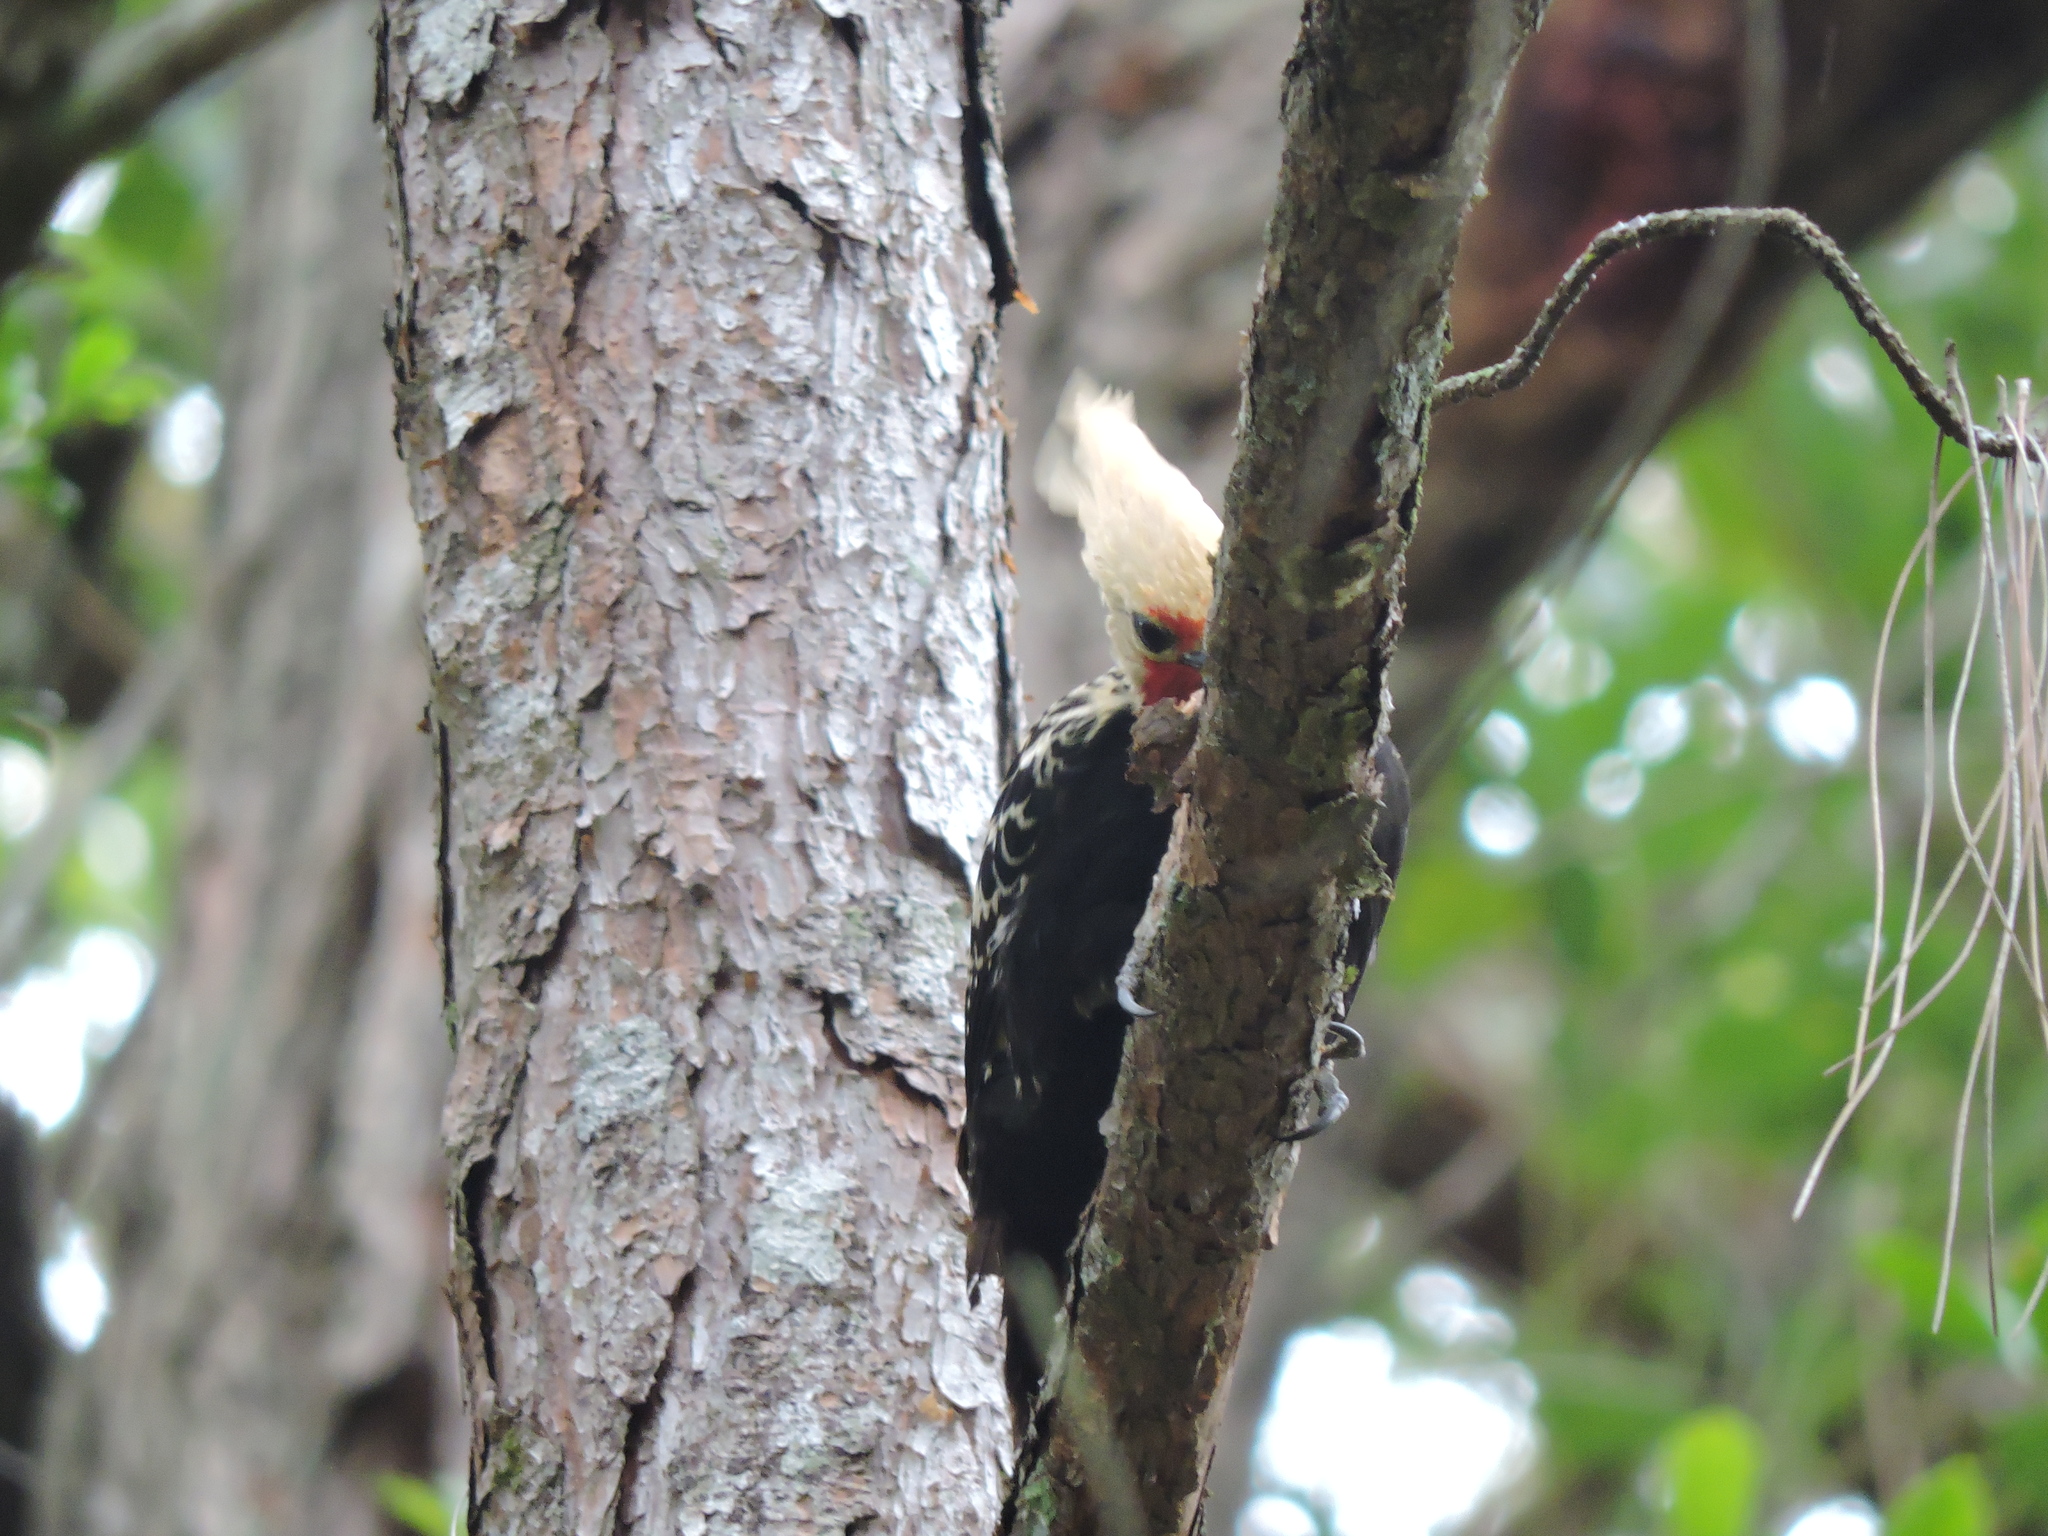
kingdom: Animalia
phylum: Chordata
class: Aves
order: Piciformes
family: Picidae
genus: Celeus
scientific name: Celeus flavescens
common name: Blond-crested woodpecker
